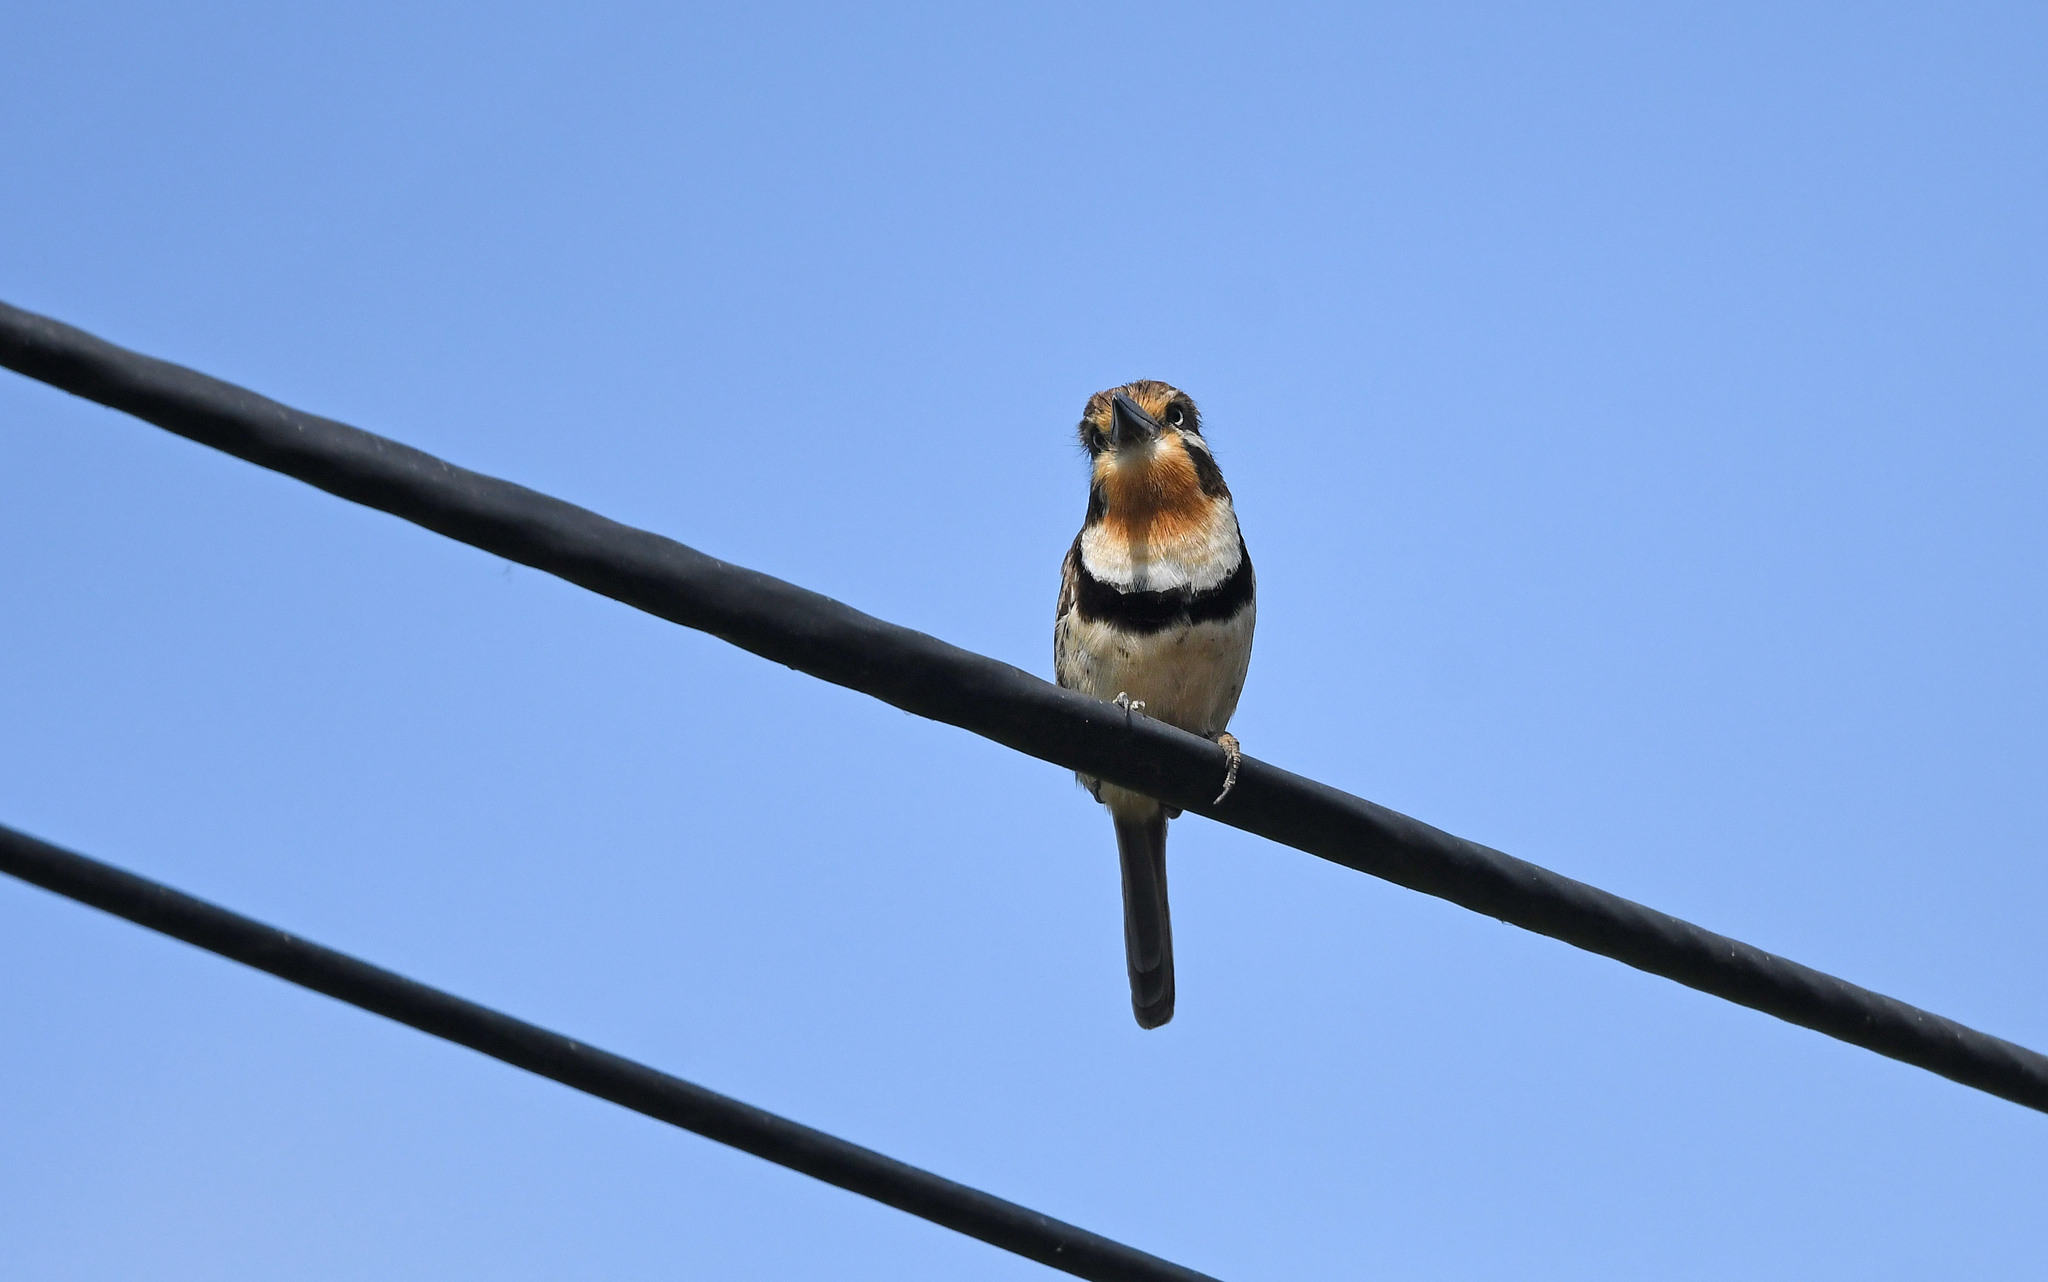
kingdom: Animalia
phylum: Chordata
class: Aves
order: Piciformes
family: Bucconidae
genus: Hypnelus
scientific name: Hypnelus ruficollis
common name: Russet-throated puffbird
